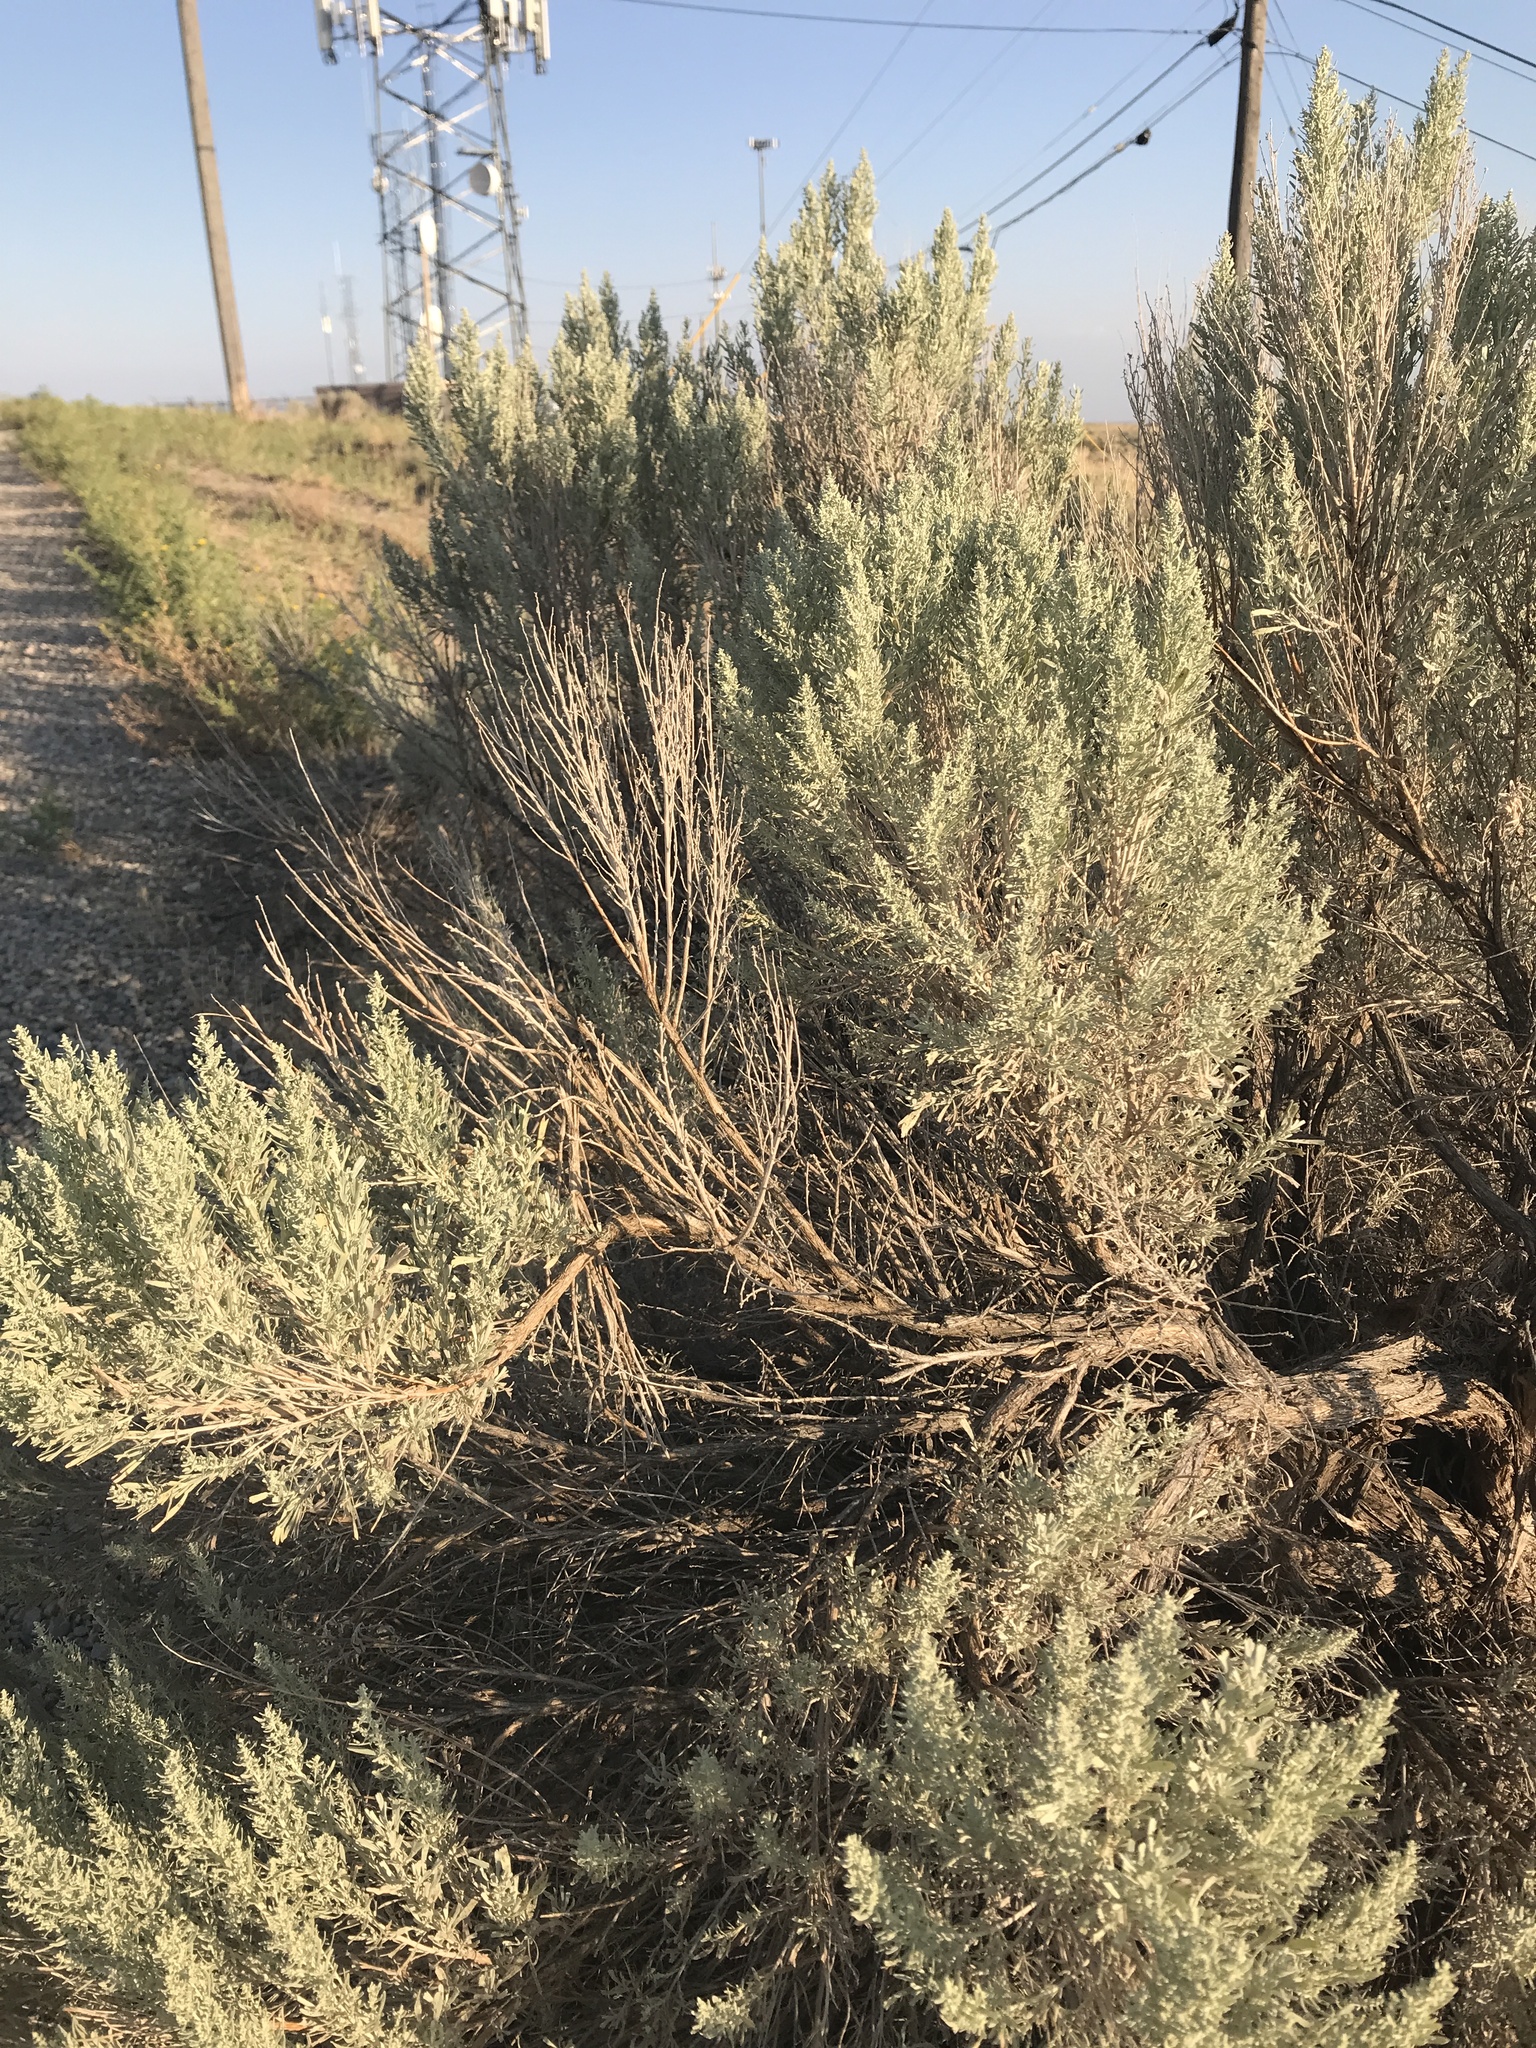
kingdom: Plantae
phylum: Tracheophyta
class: Magnoliopsida
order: Asterales
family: Asteraceae
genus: Artemisia
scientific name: Artemisia tridentata
